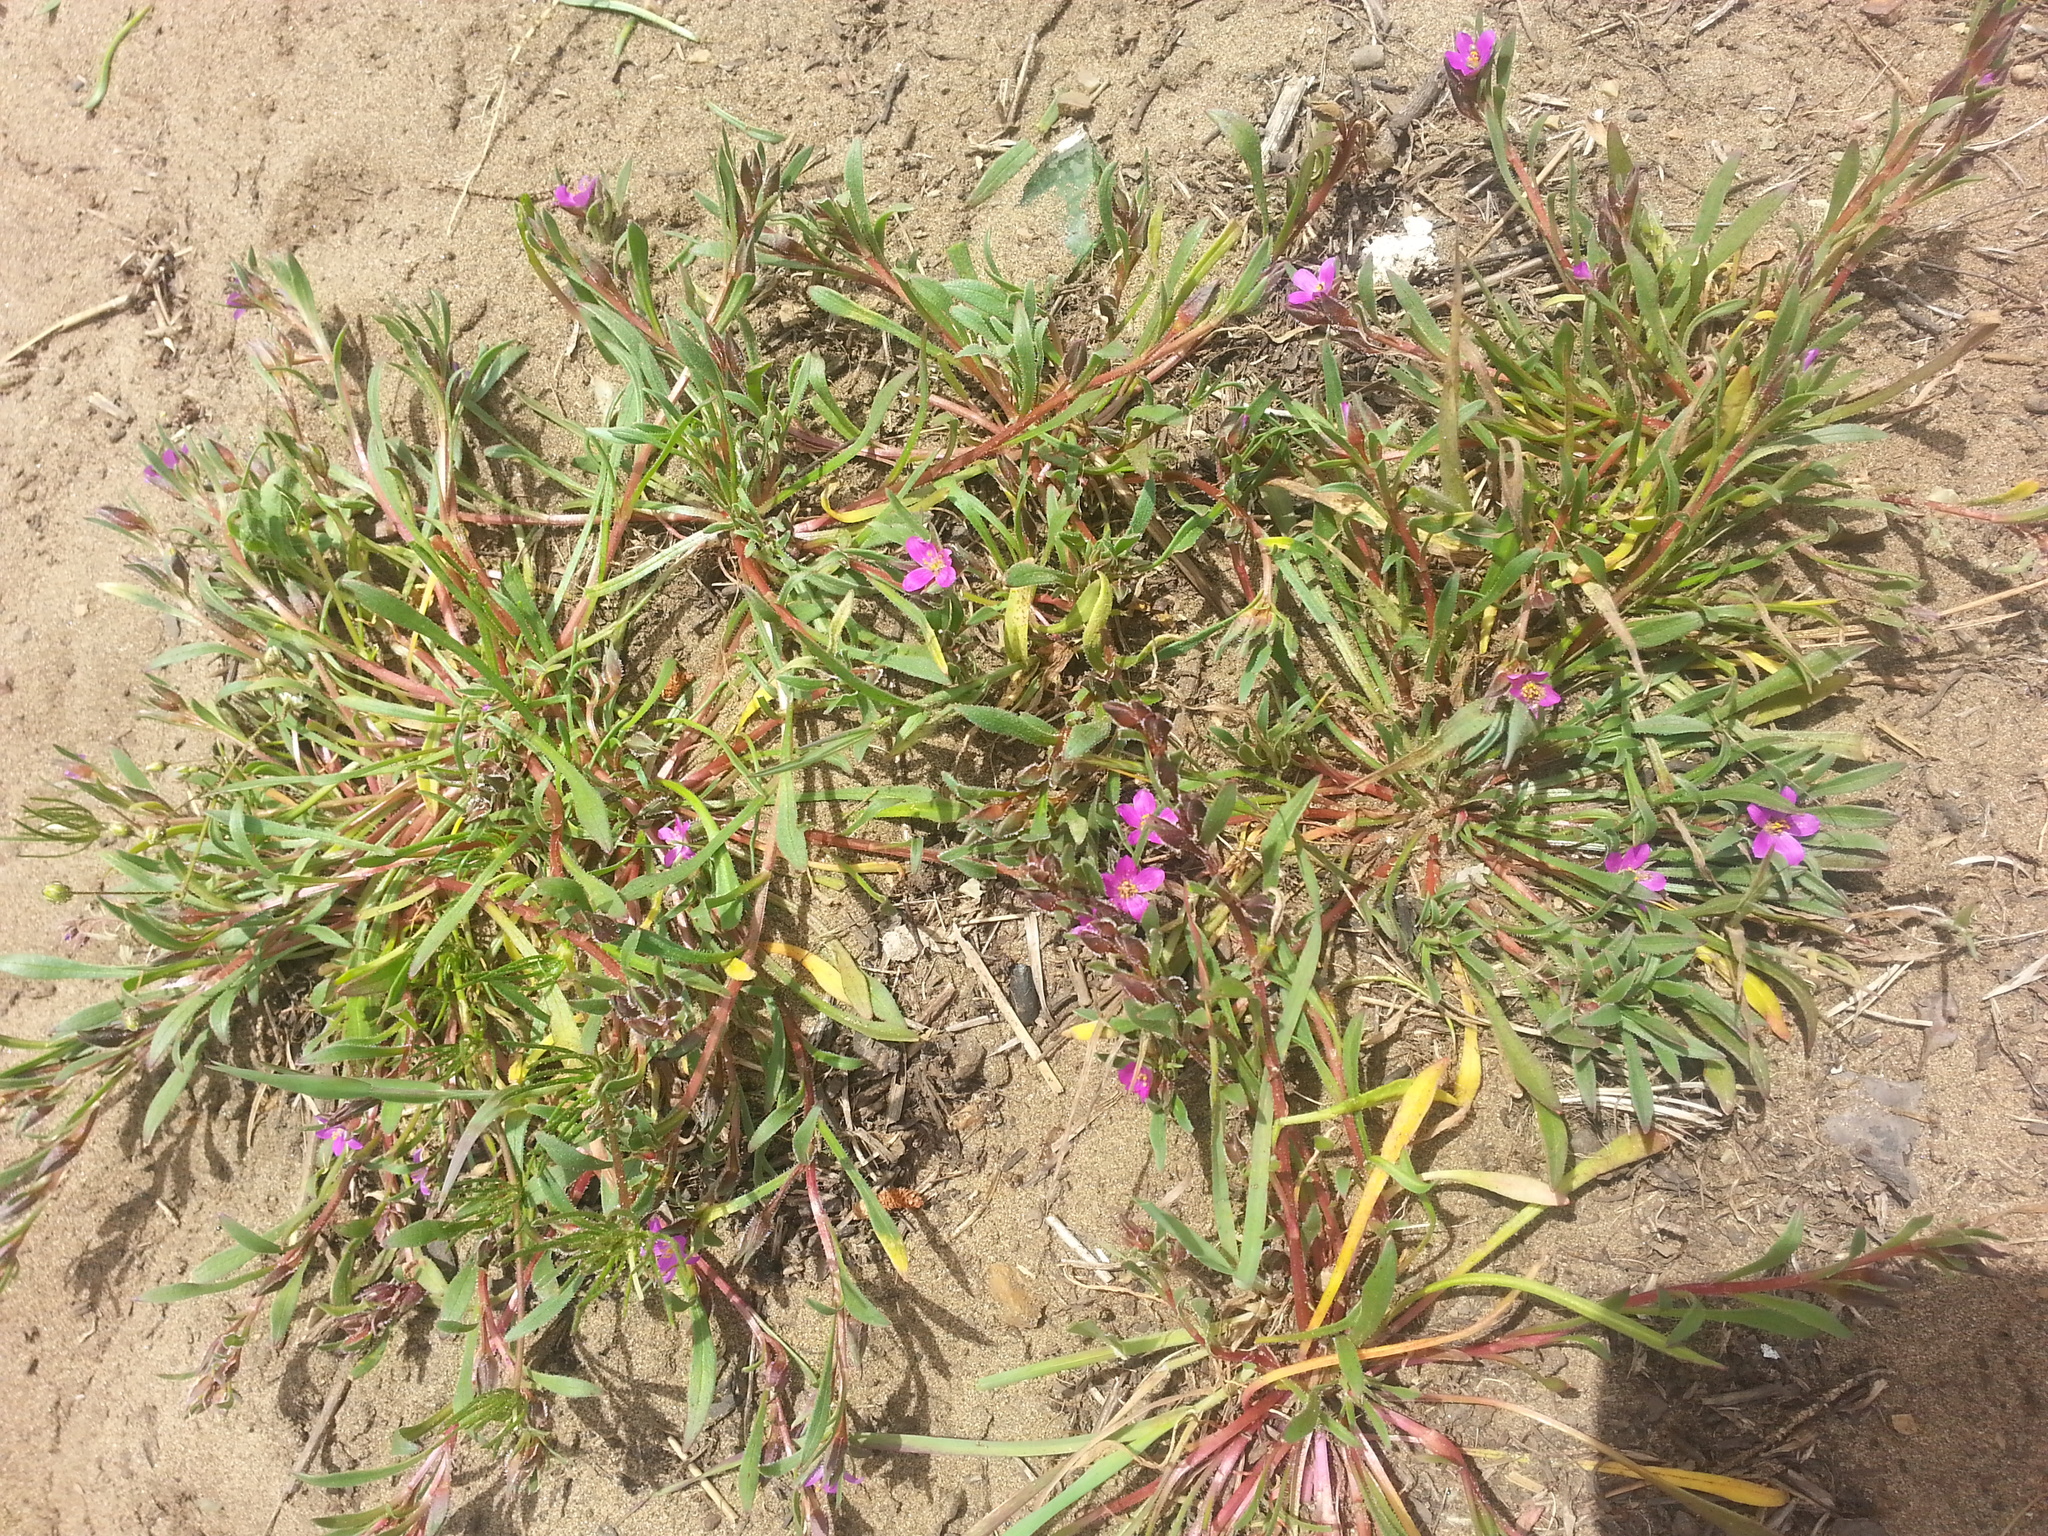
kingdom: Plantae
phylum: Tracheophyta
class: Magnoliopsida
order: Caryophyllales
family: Montiaceae
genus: Calandrinia
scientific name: Calandrinia menziesii
